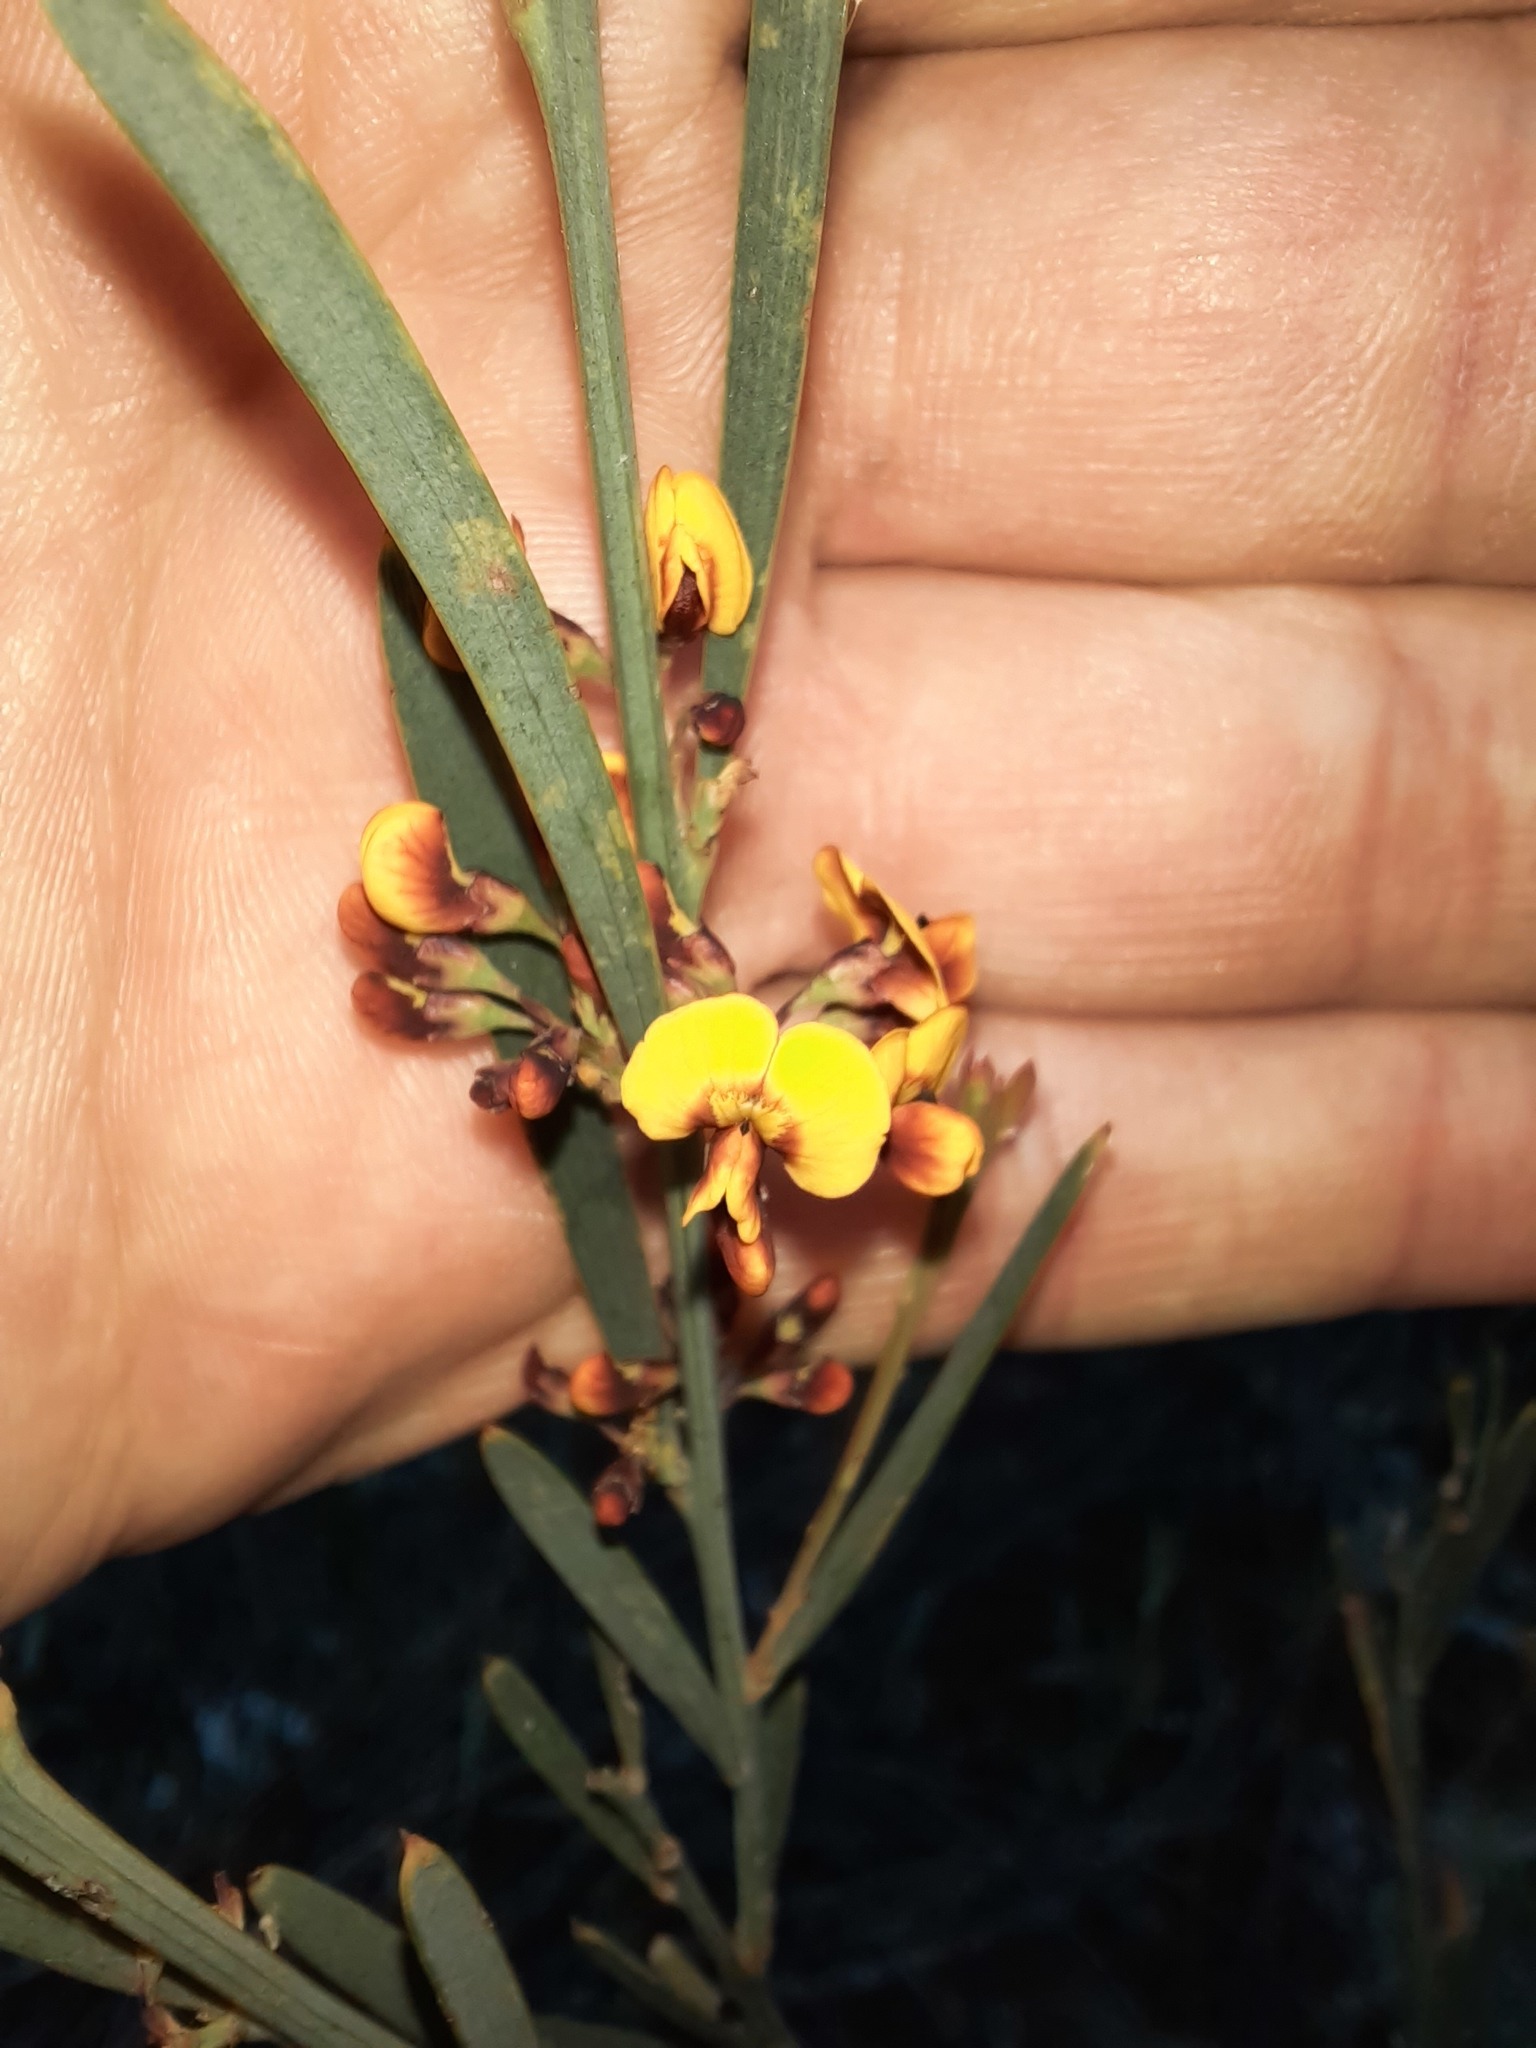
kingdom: Plantae
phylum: Tracheophyta
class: Magnoliopsida
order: Fabales
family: Fabaceae
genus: Daviesia
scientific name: Daviesia leptophylla
